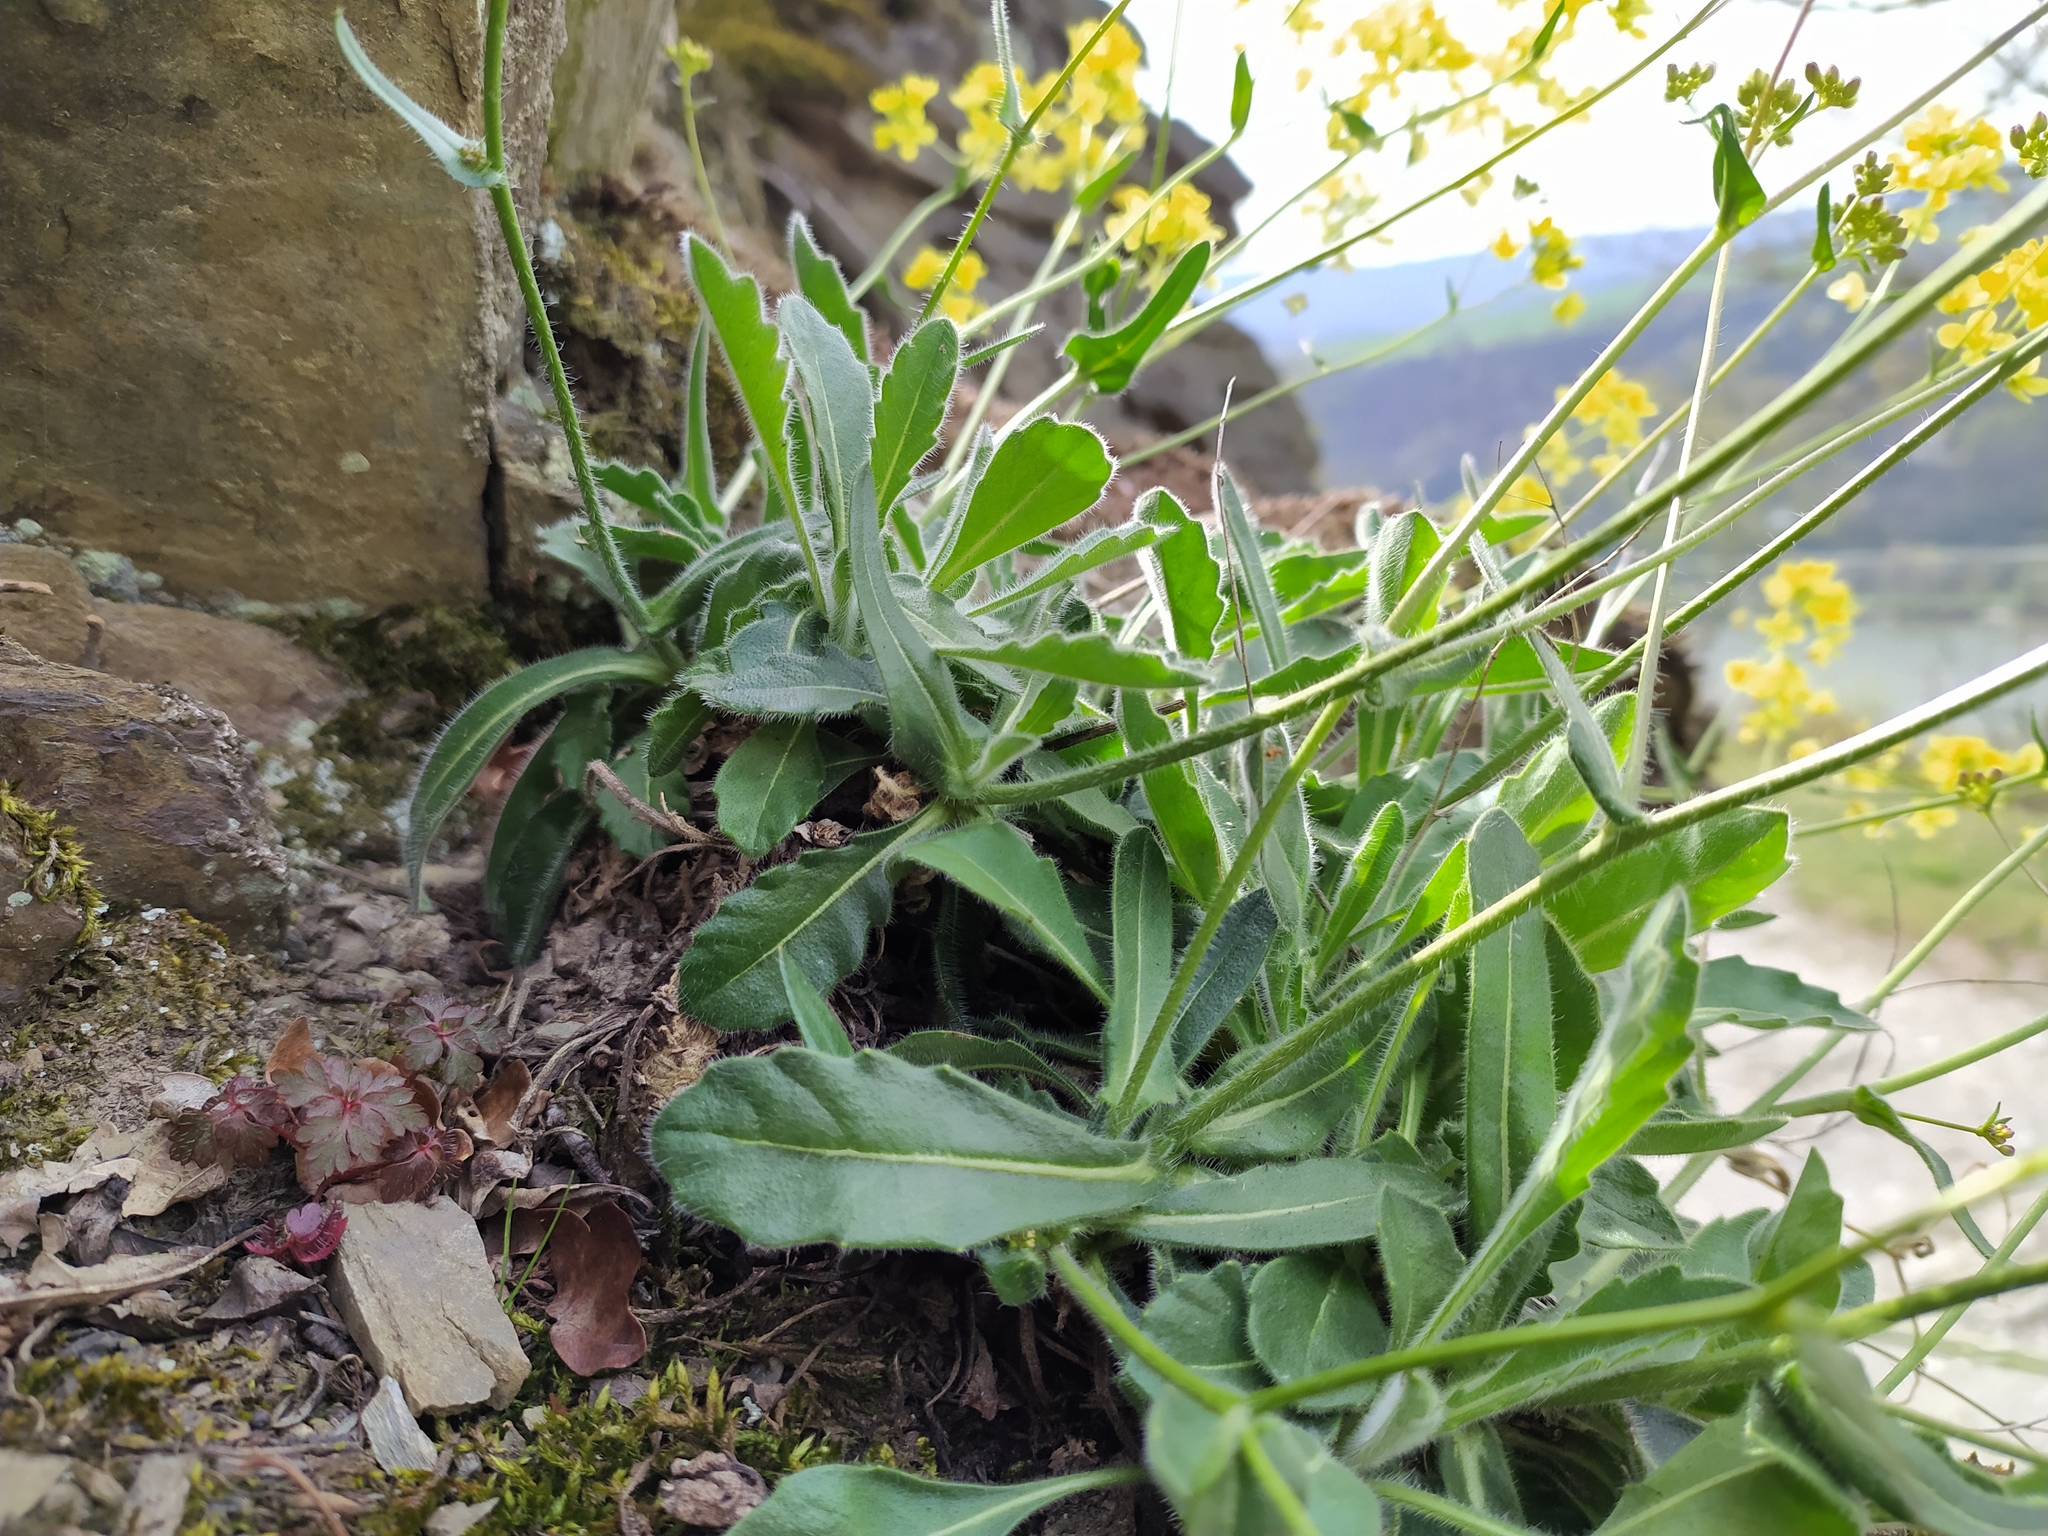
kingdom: Plantae
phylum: Tracheophyta
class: Magnoliopsida
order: Brassicales
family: Brassicaceae
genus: Biscutella
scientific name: Biscutella laevigata
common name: Buckler mustard
